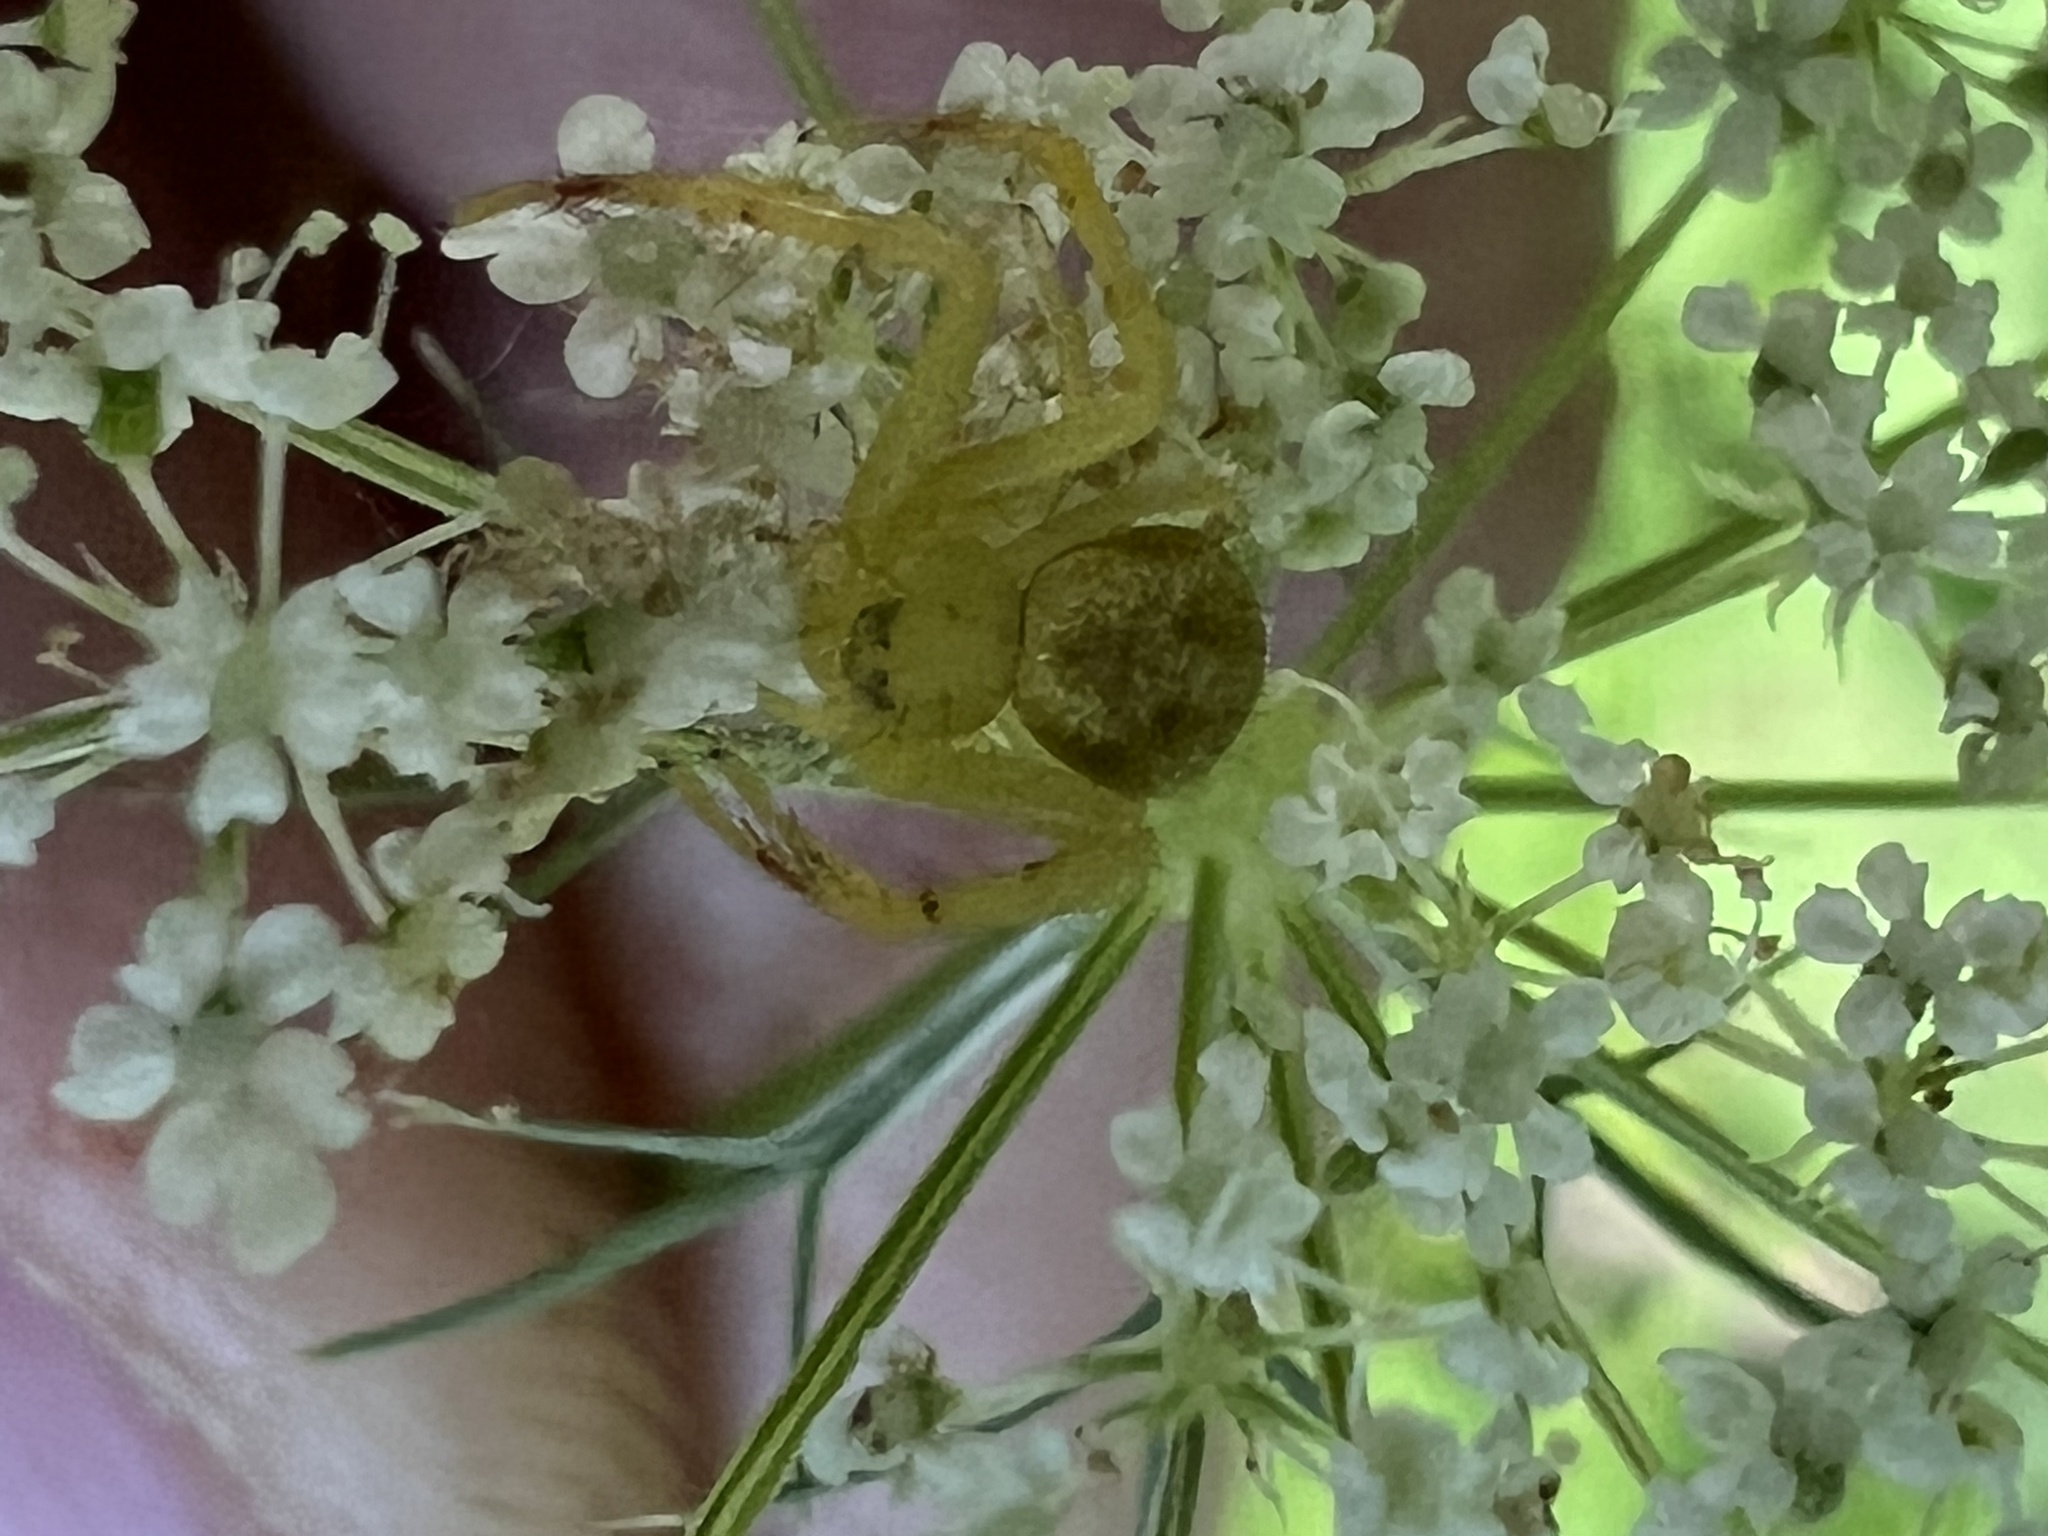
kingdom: Animalia
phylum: Arthropoda
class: Arachnida
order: Araneae
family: Thomisidae
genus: Mecaphesa
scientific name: Mecaphesa asperata
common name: Crab spiders
